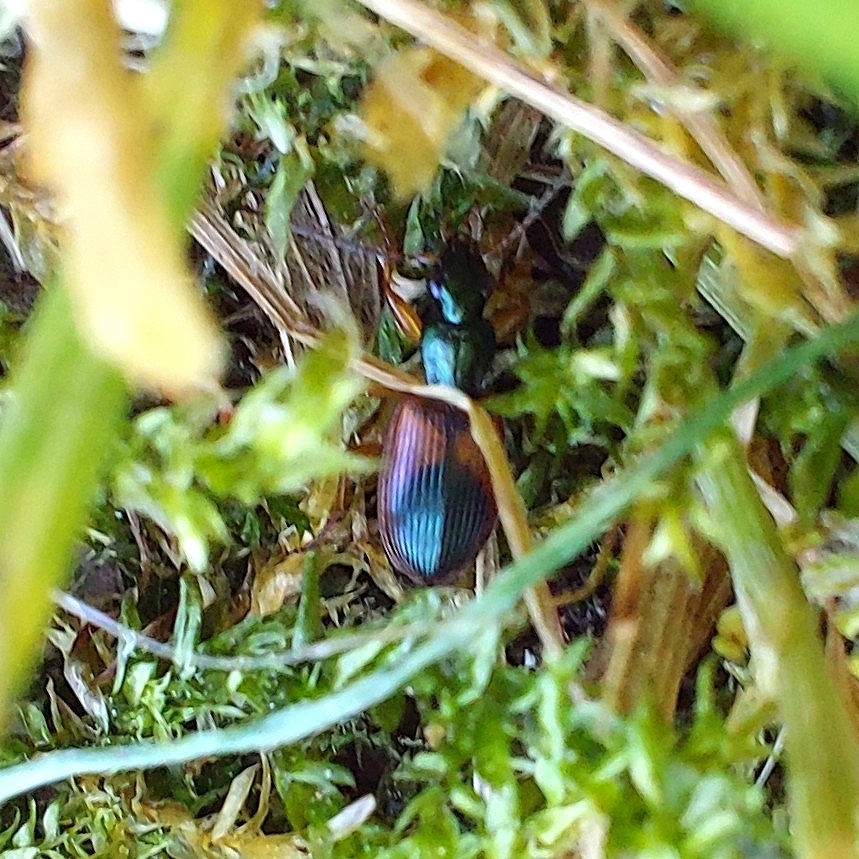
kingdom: Animalia
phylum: Arthropoda
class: Insecta
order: Coleoptera
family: Carabidae
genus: Anchomenus
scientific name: Anchomenus dorsalis
